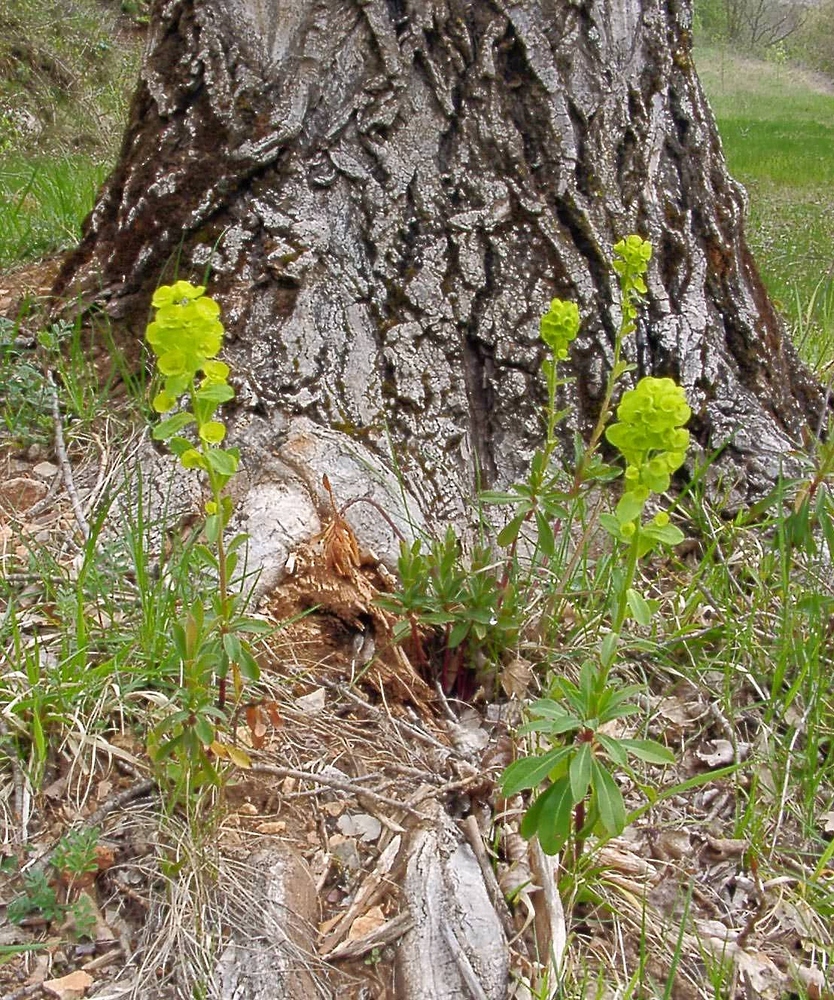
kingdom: Plantae
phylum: Tracheophyta
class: Magnoliopsida
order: Malpighiales
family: Euphorbiaceae
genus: Euphorbia
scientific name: Euphorbia amygdaloides
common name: Wood spurge
